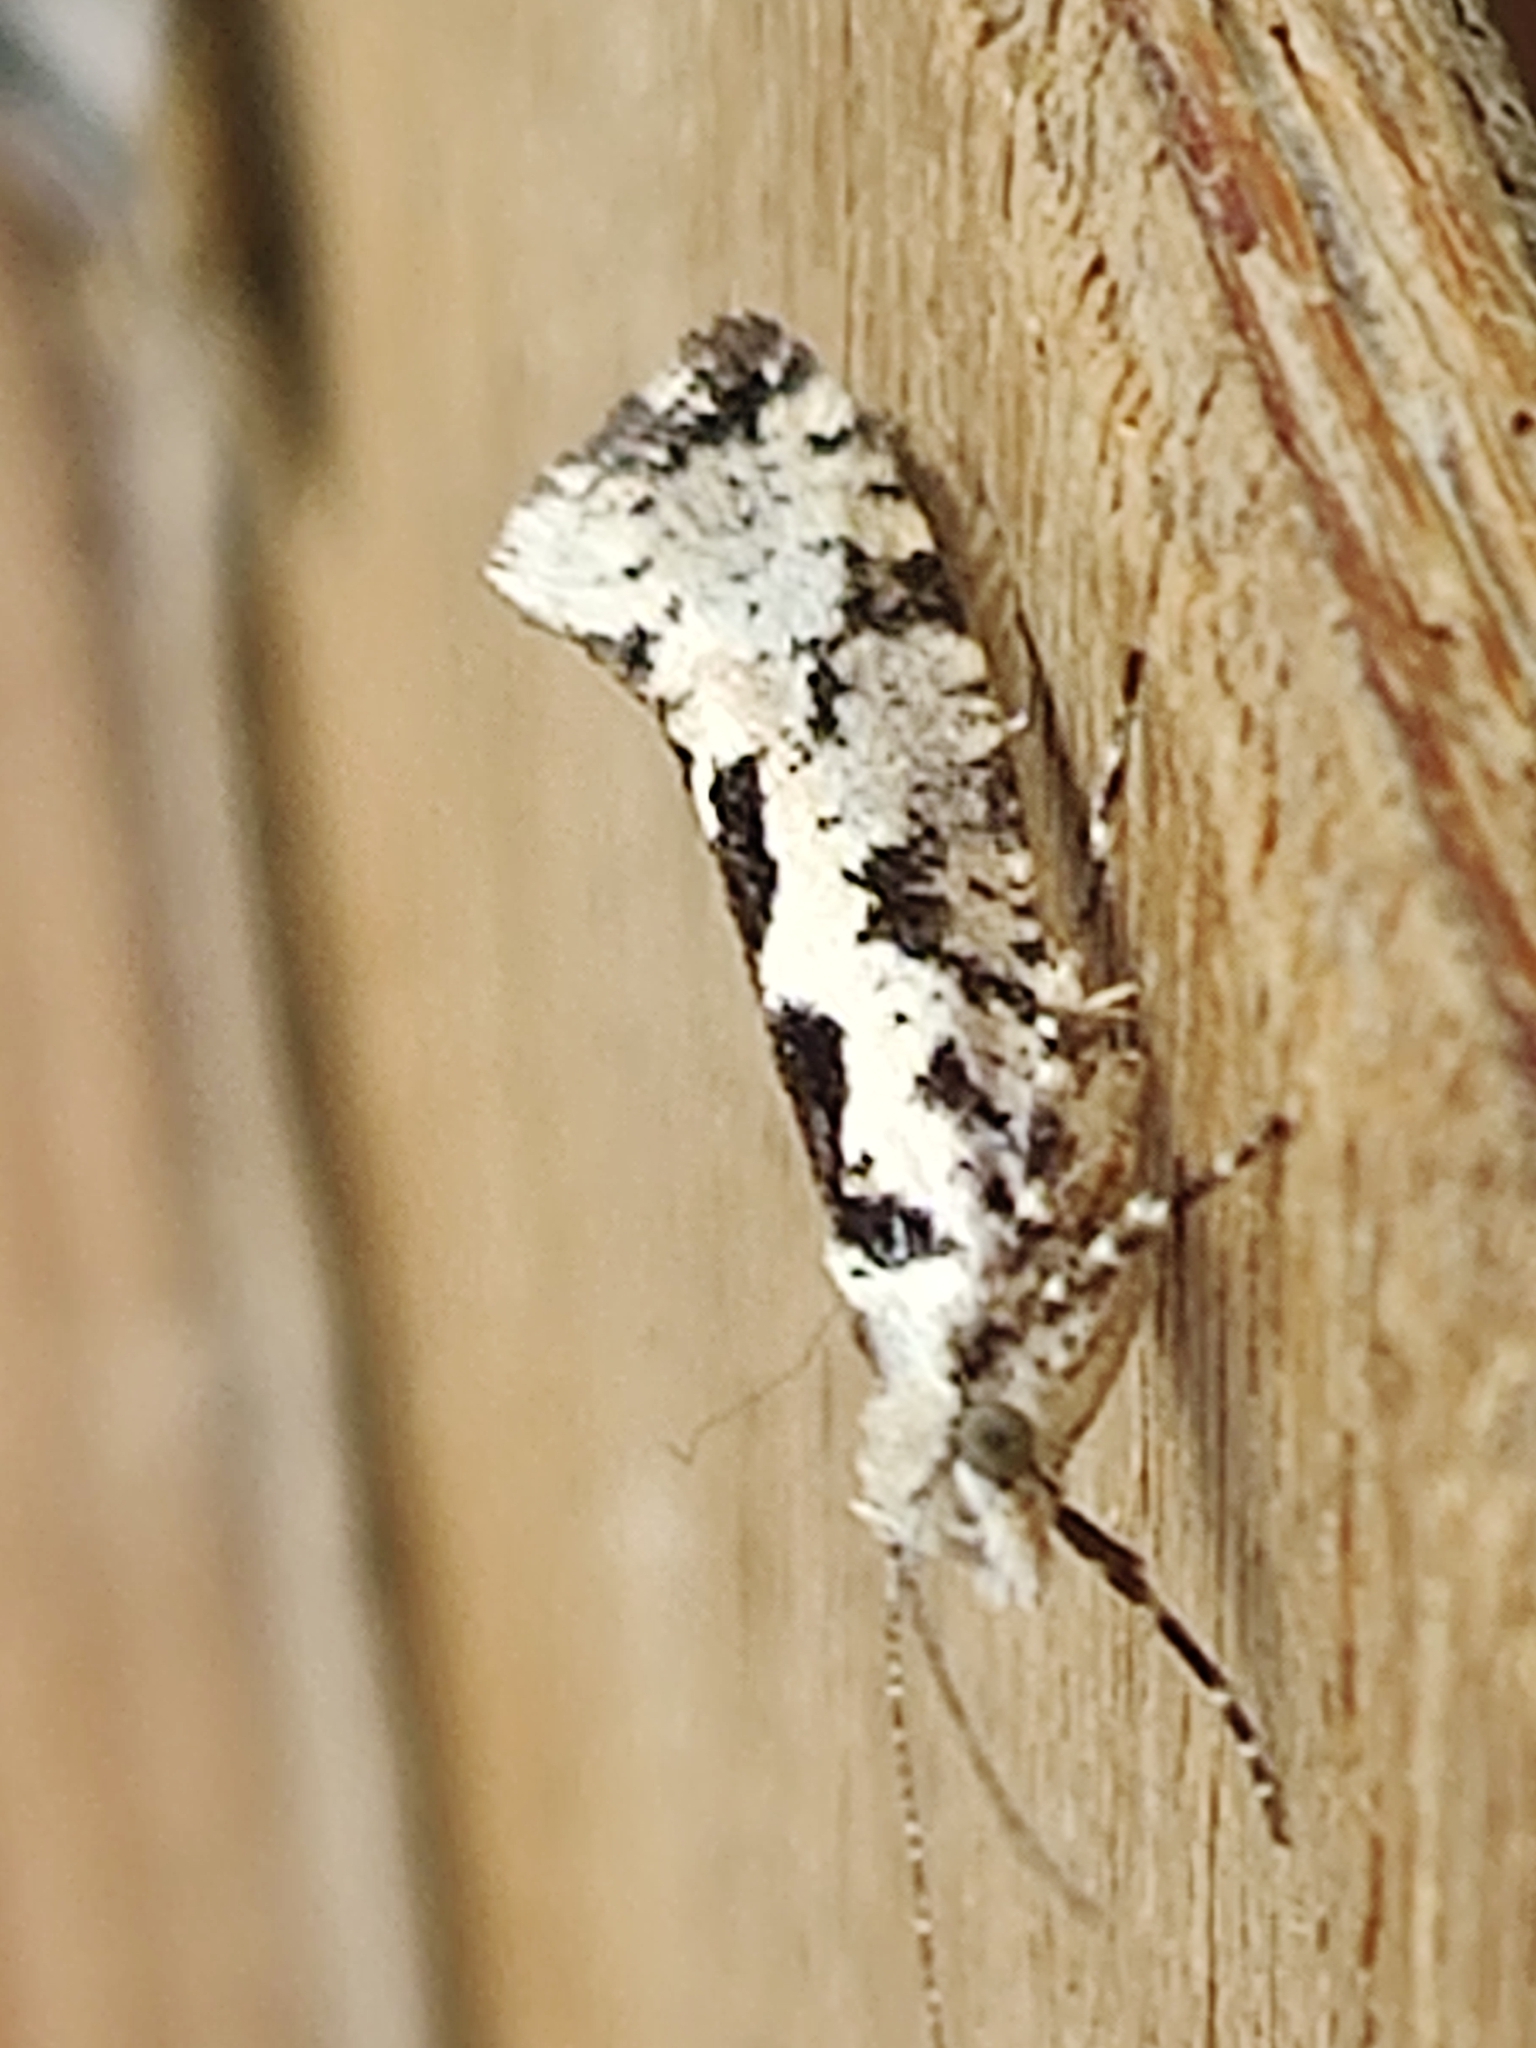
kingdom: Animalia
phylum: Arthropoda
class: Insecta
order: Lepidoptera
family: Plutellidae
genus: Ypsolophus
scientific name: Ypsolophus sequella
